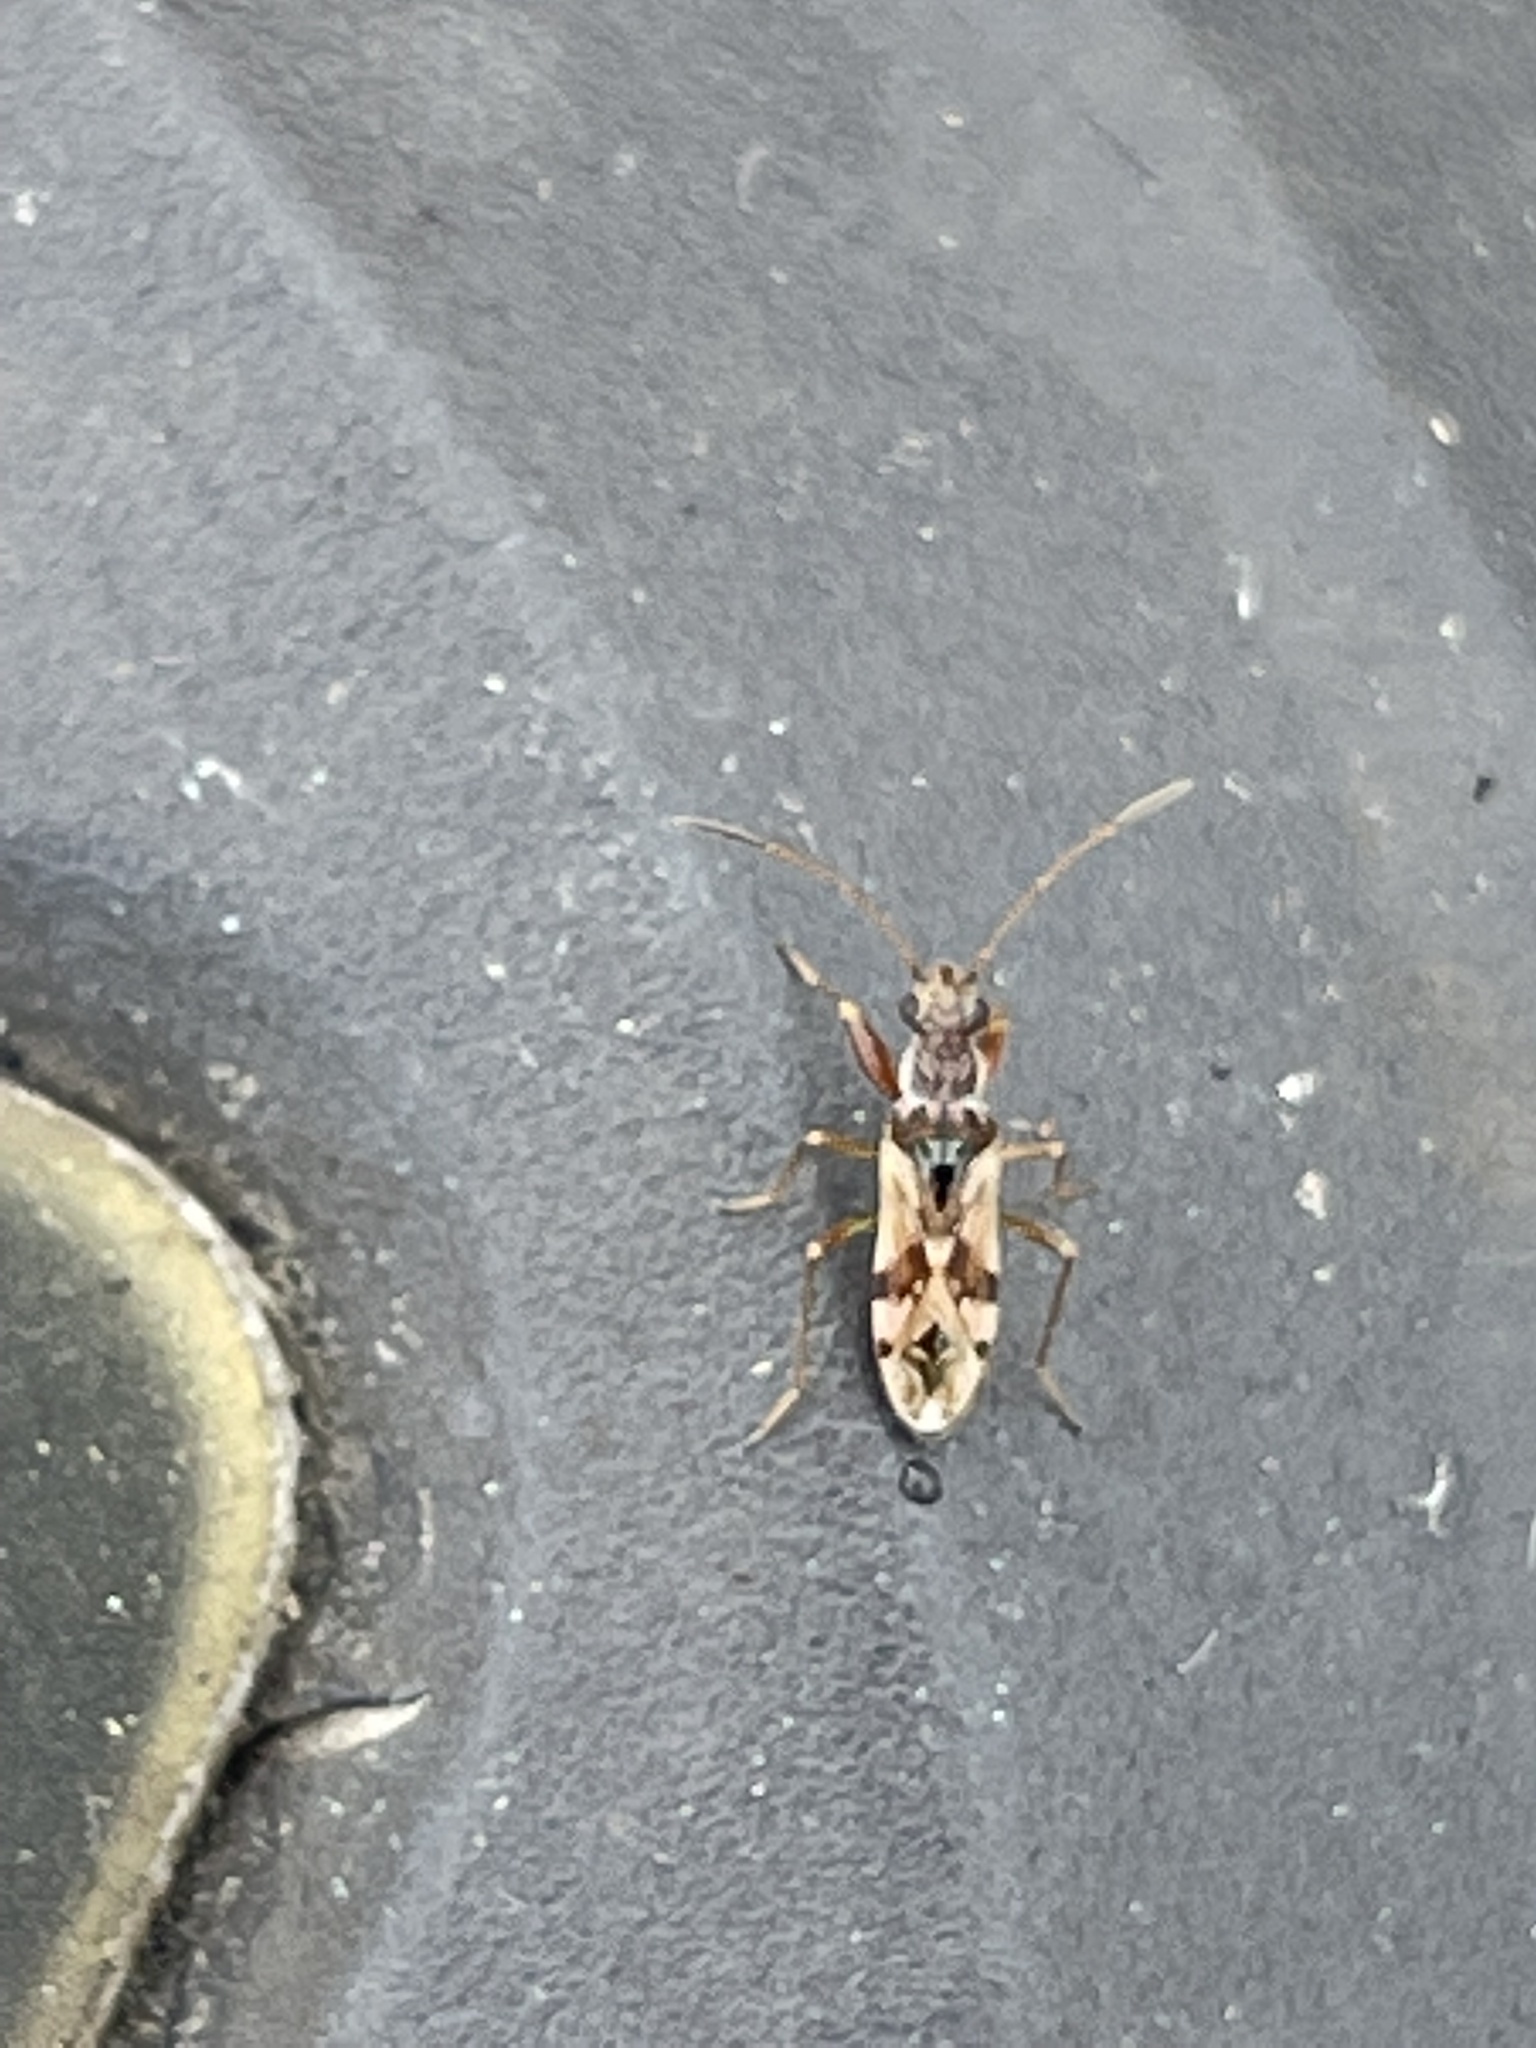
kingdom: Animalia
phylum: Arthropoda
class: Insecta
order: Hemiptera
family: Rhyparochromidae
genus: Neopamera
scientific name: Neopamera bilobata
